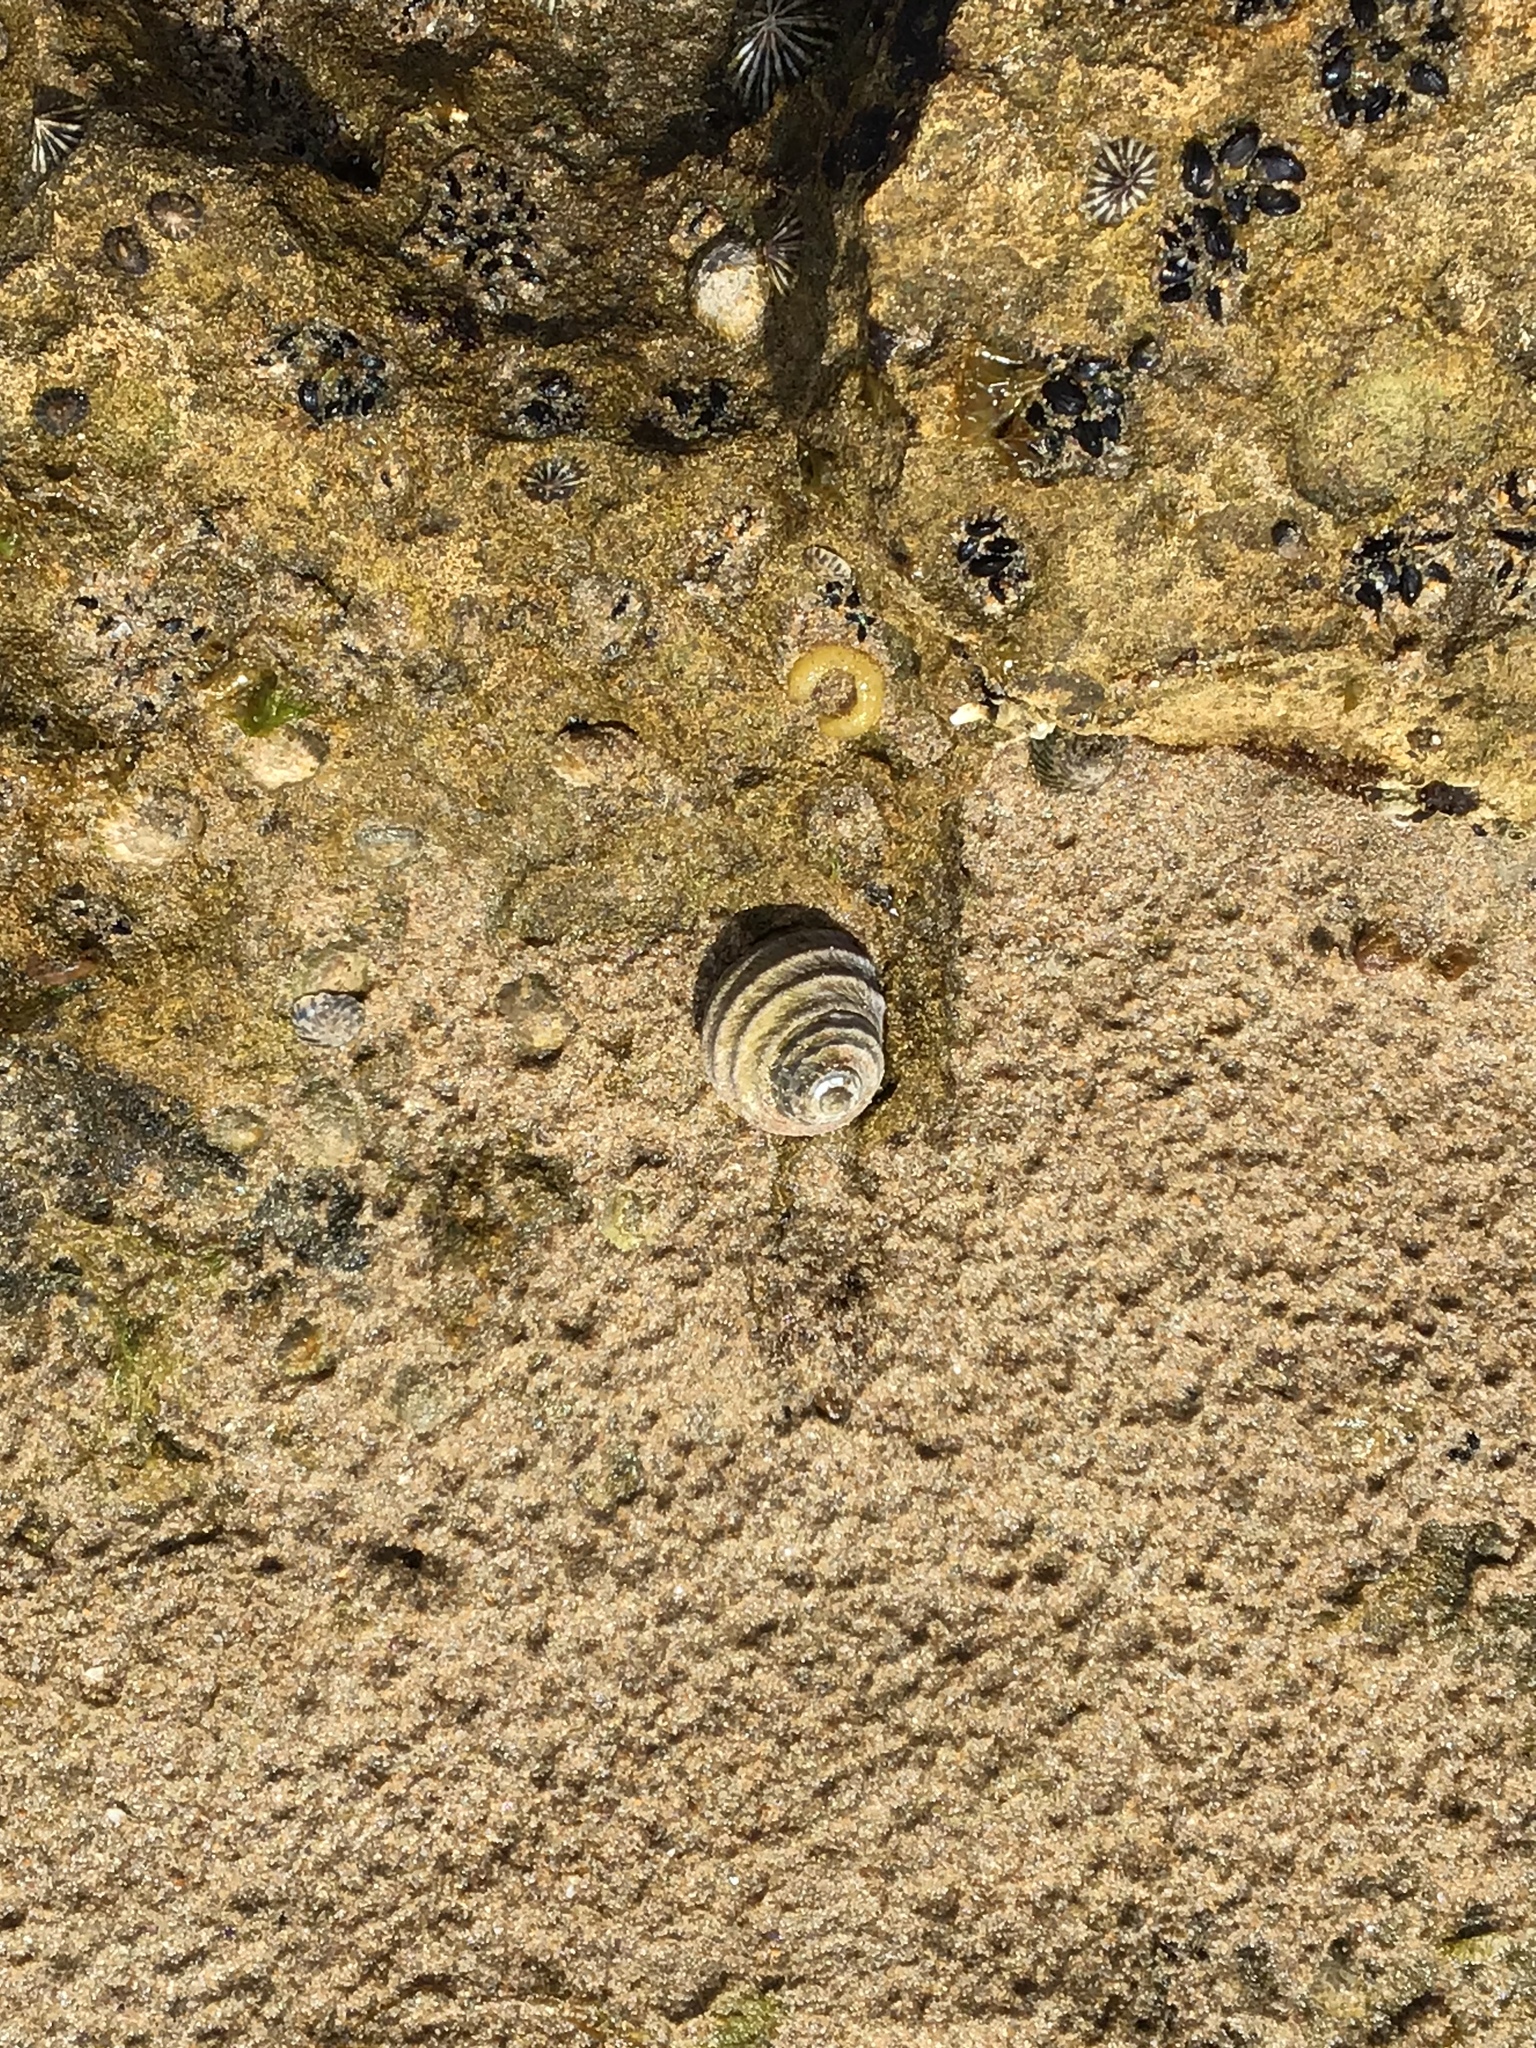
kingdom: Animalia
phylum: Mollusca
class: Gastropoda
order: Trochida
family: Trochidae
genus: Austrocochlea
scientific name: Austrocochlea constricta
